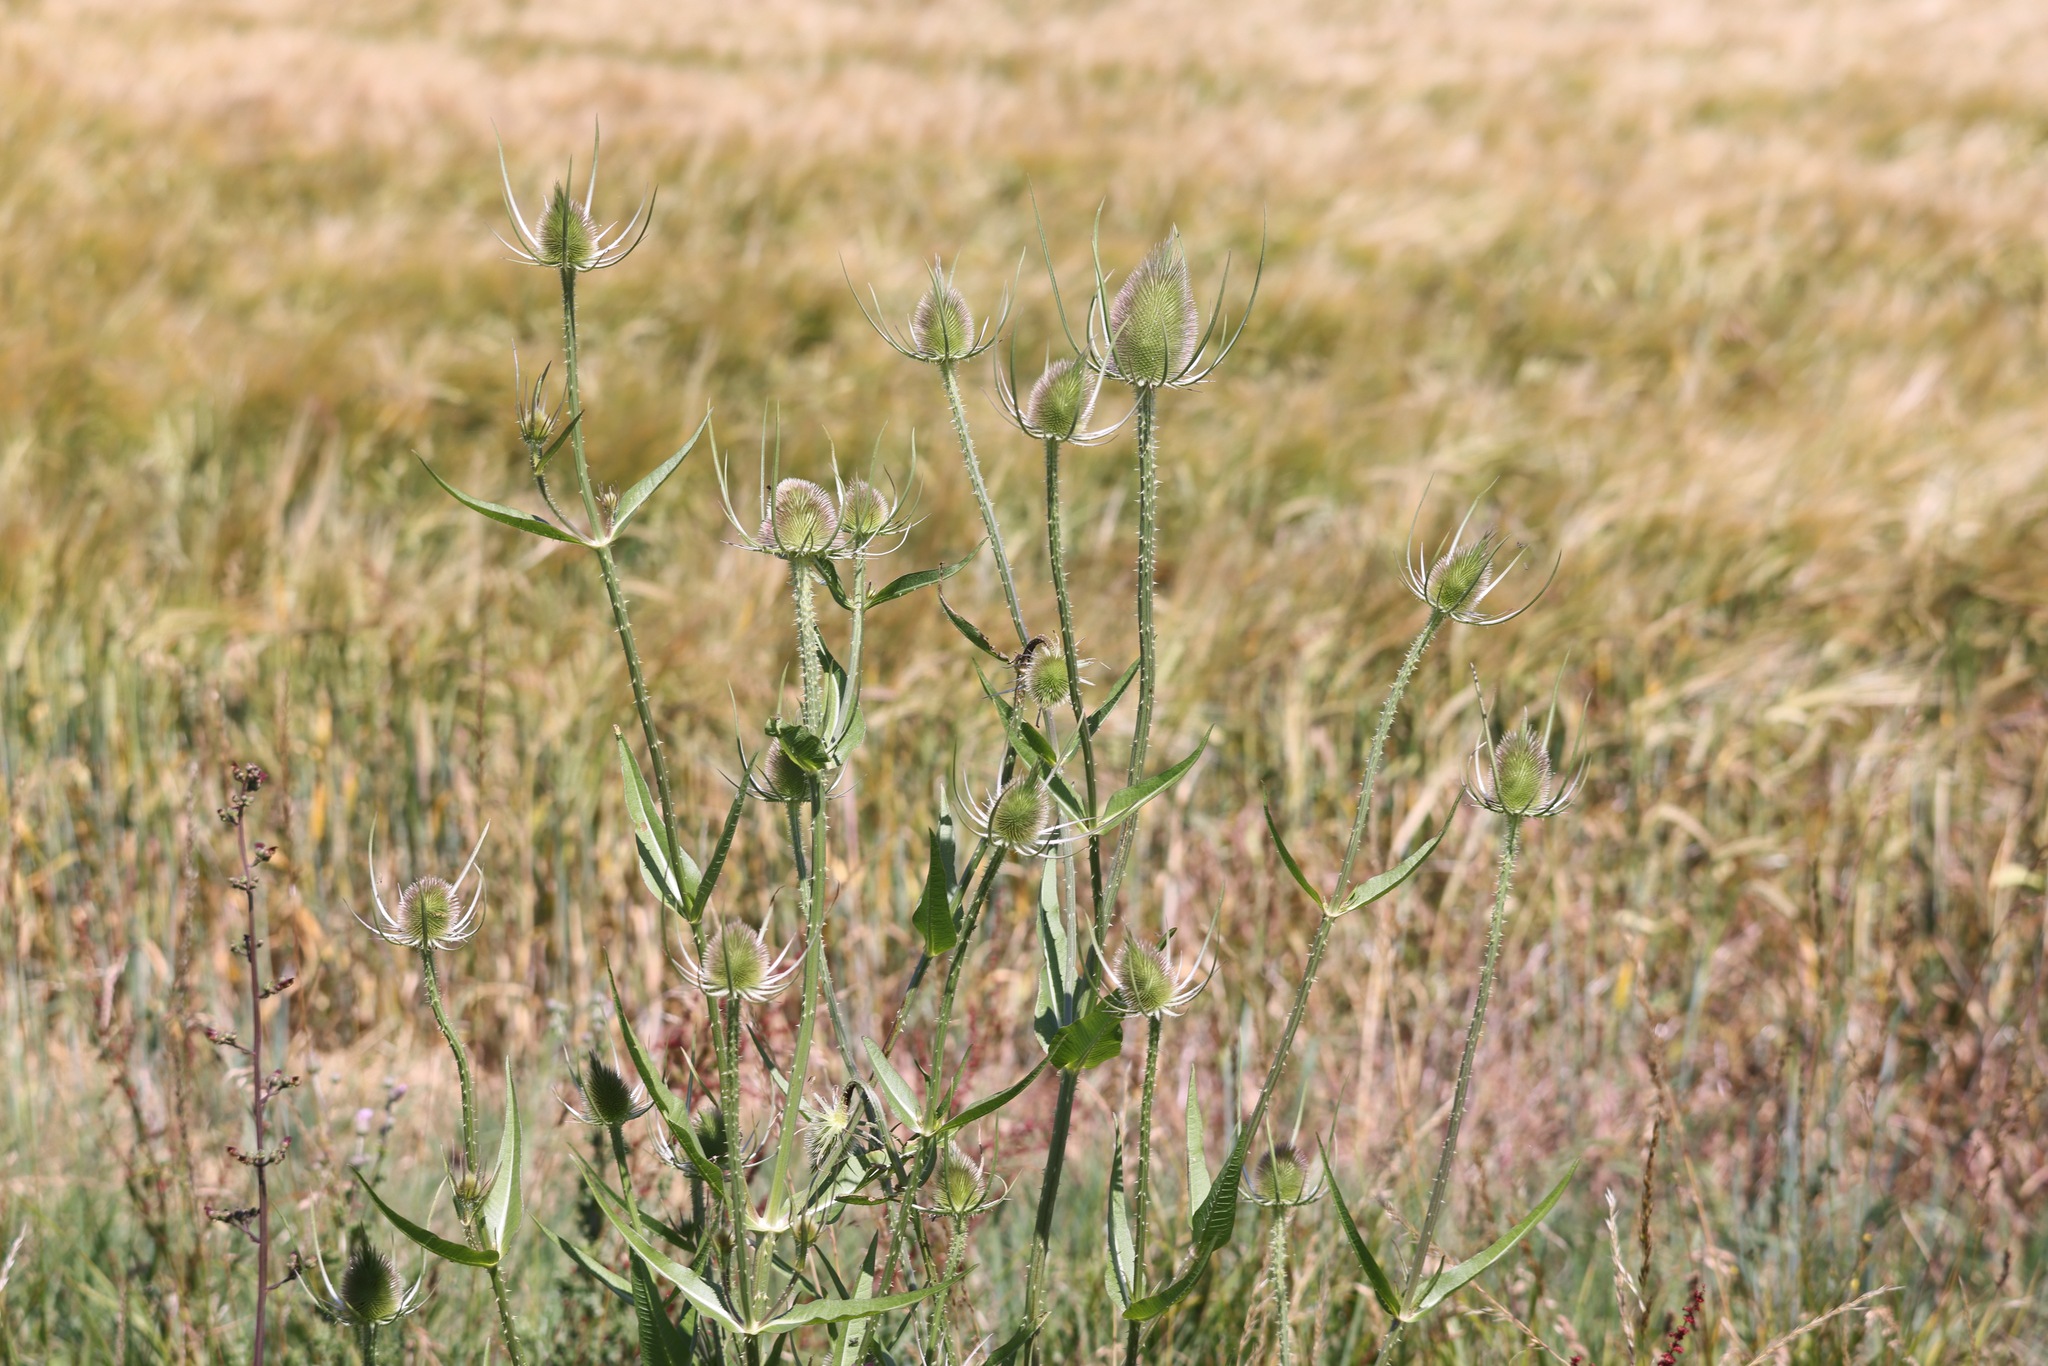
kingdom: Plantae
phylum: Tracheophyta
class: Magnoliopsida
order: Dipsacales
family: Caprifoliaceae
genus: Dipsacus
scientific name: Dipsacus fullonum
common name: Teasel
